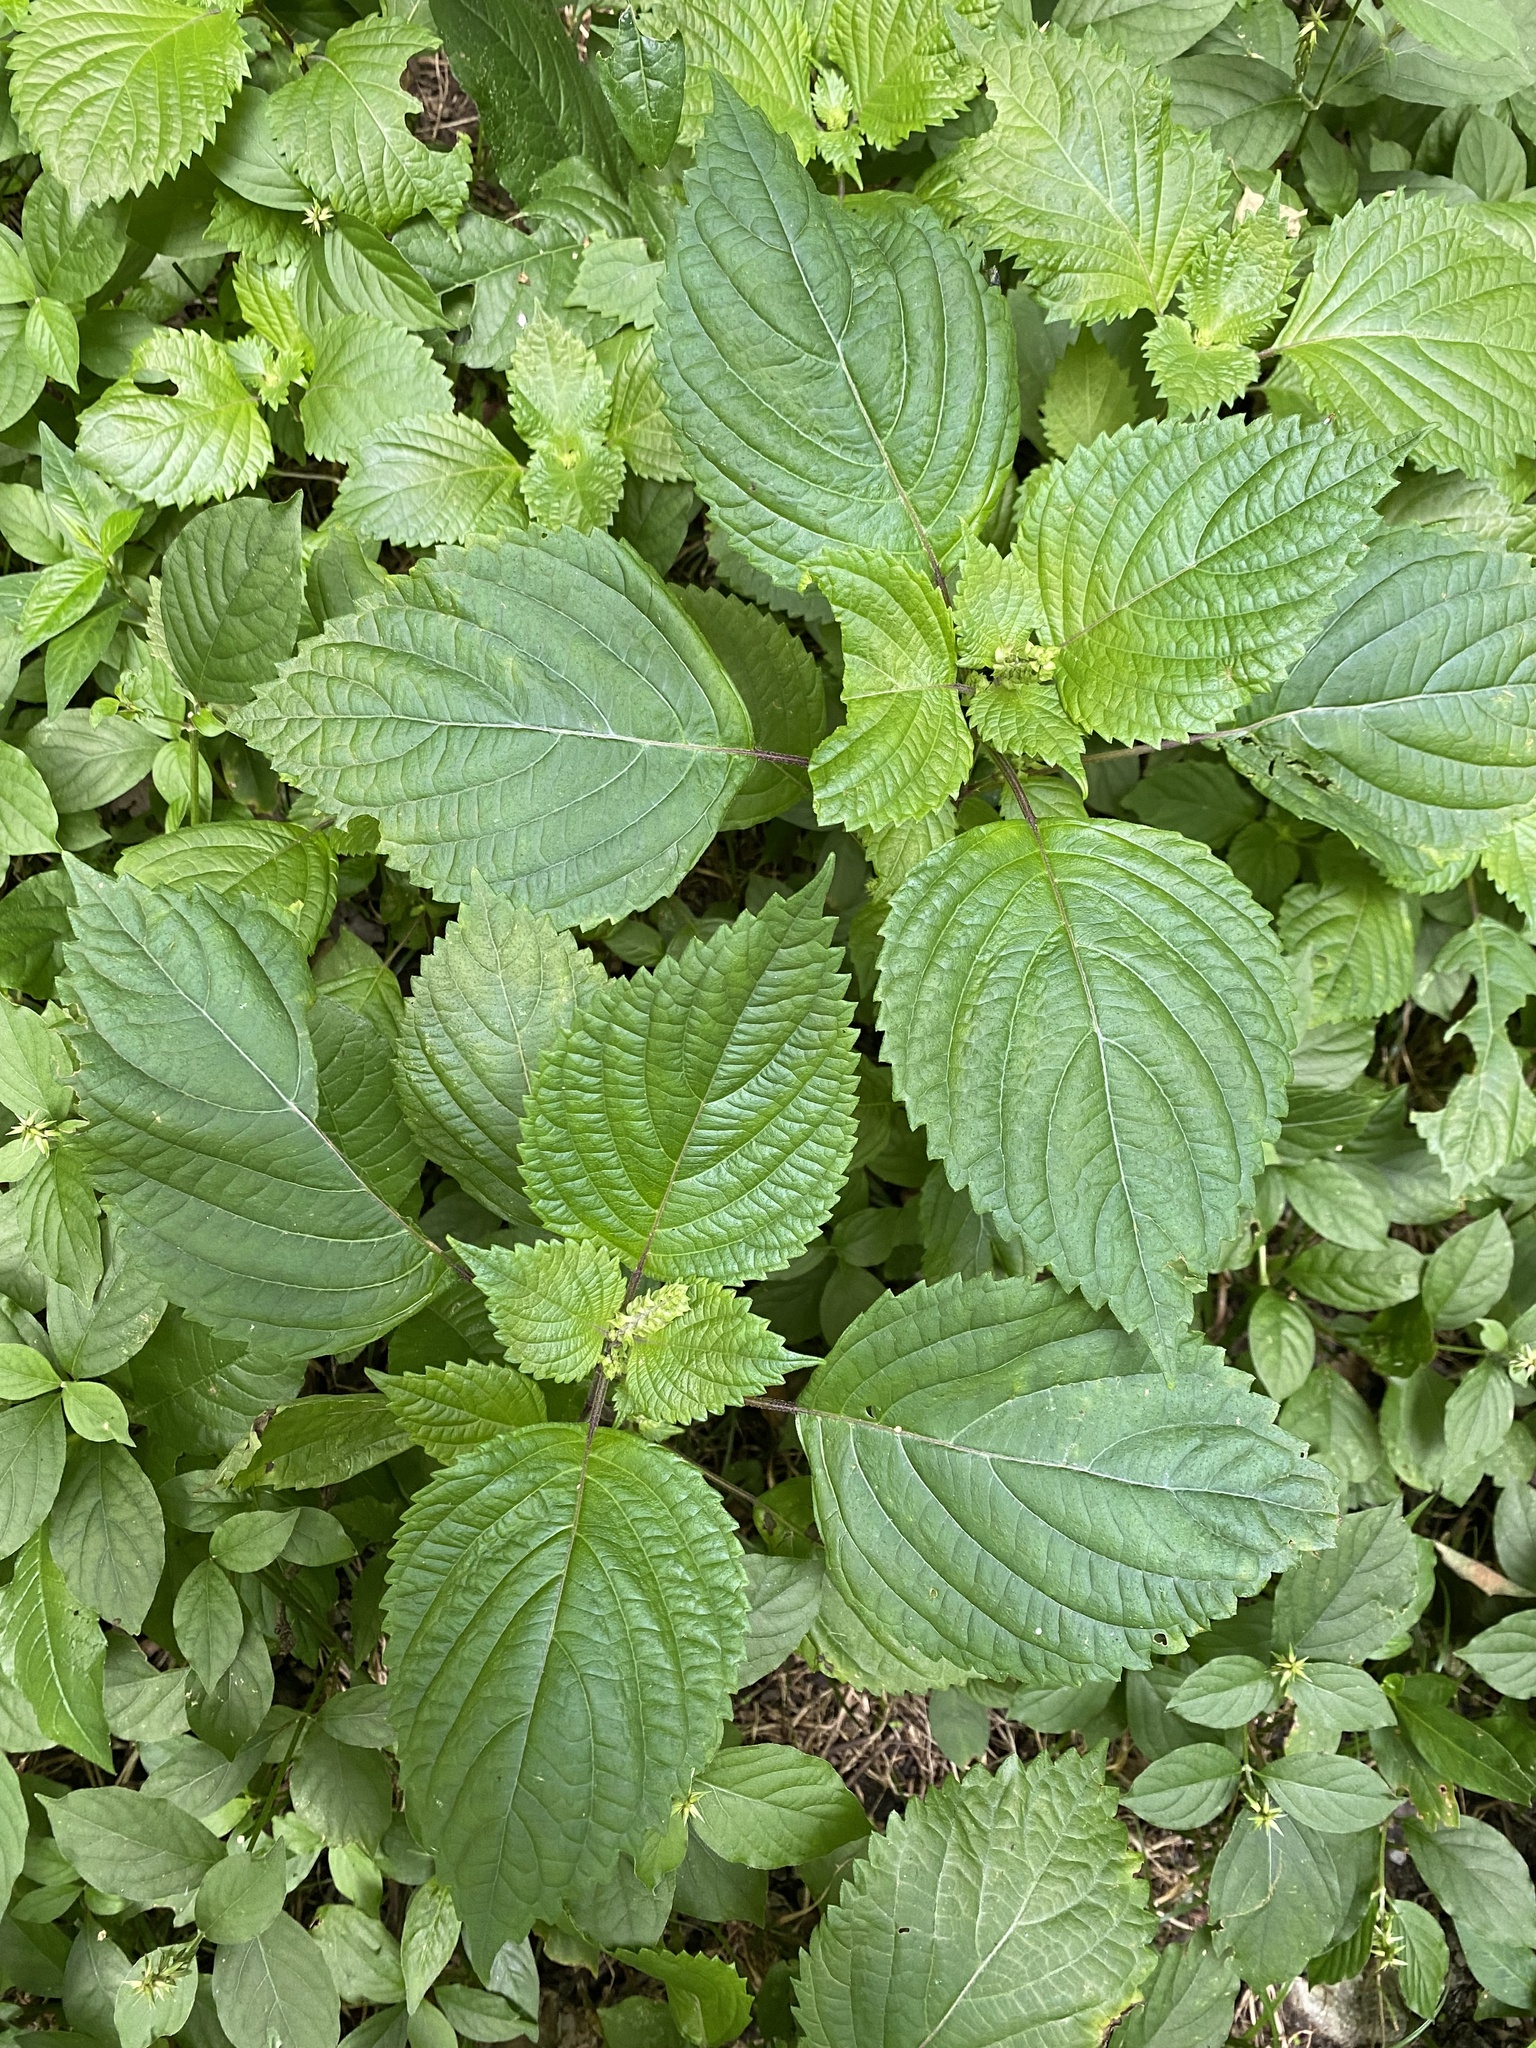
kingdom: Plantae
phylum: Tracheophyta
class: Magnoliopsida
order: Lamiales
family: Lamiaceae
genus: Perilla
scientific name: Perilla frutescens
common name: Perilla
